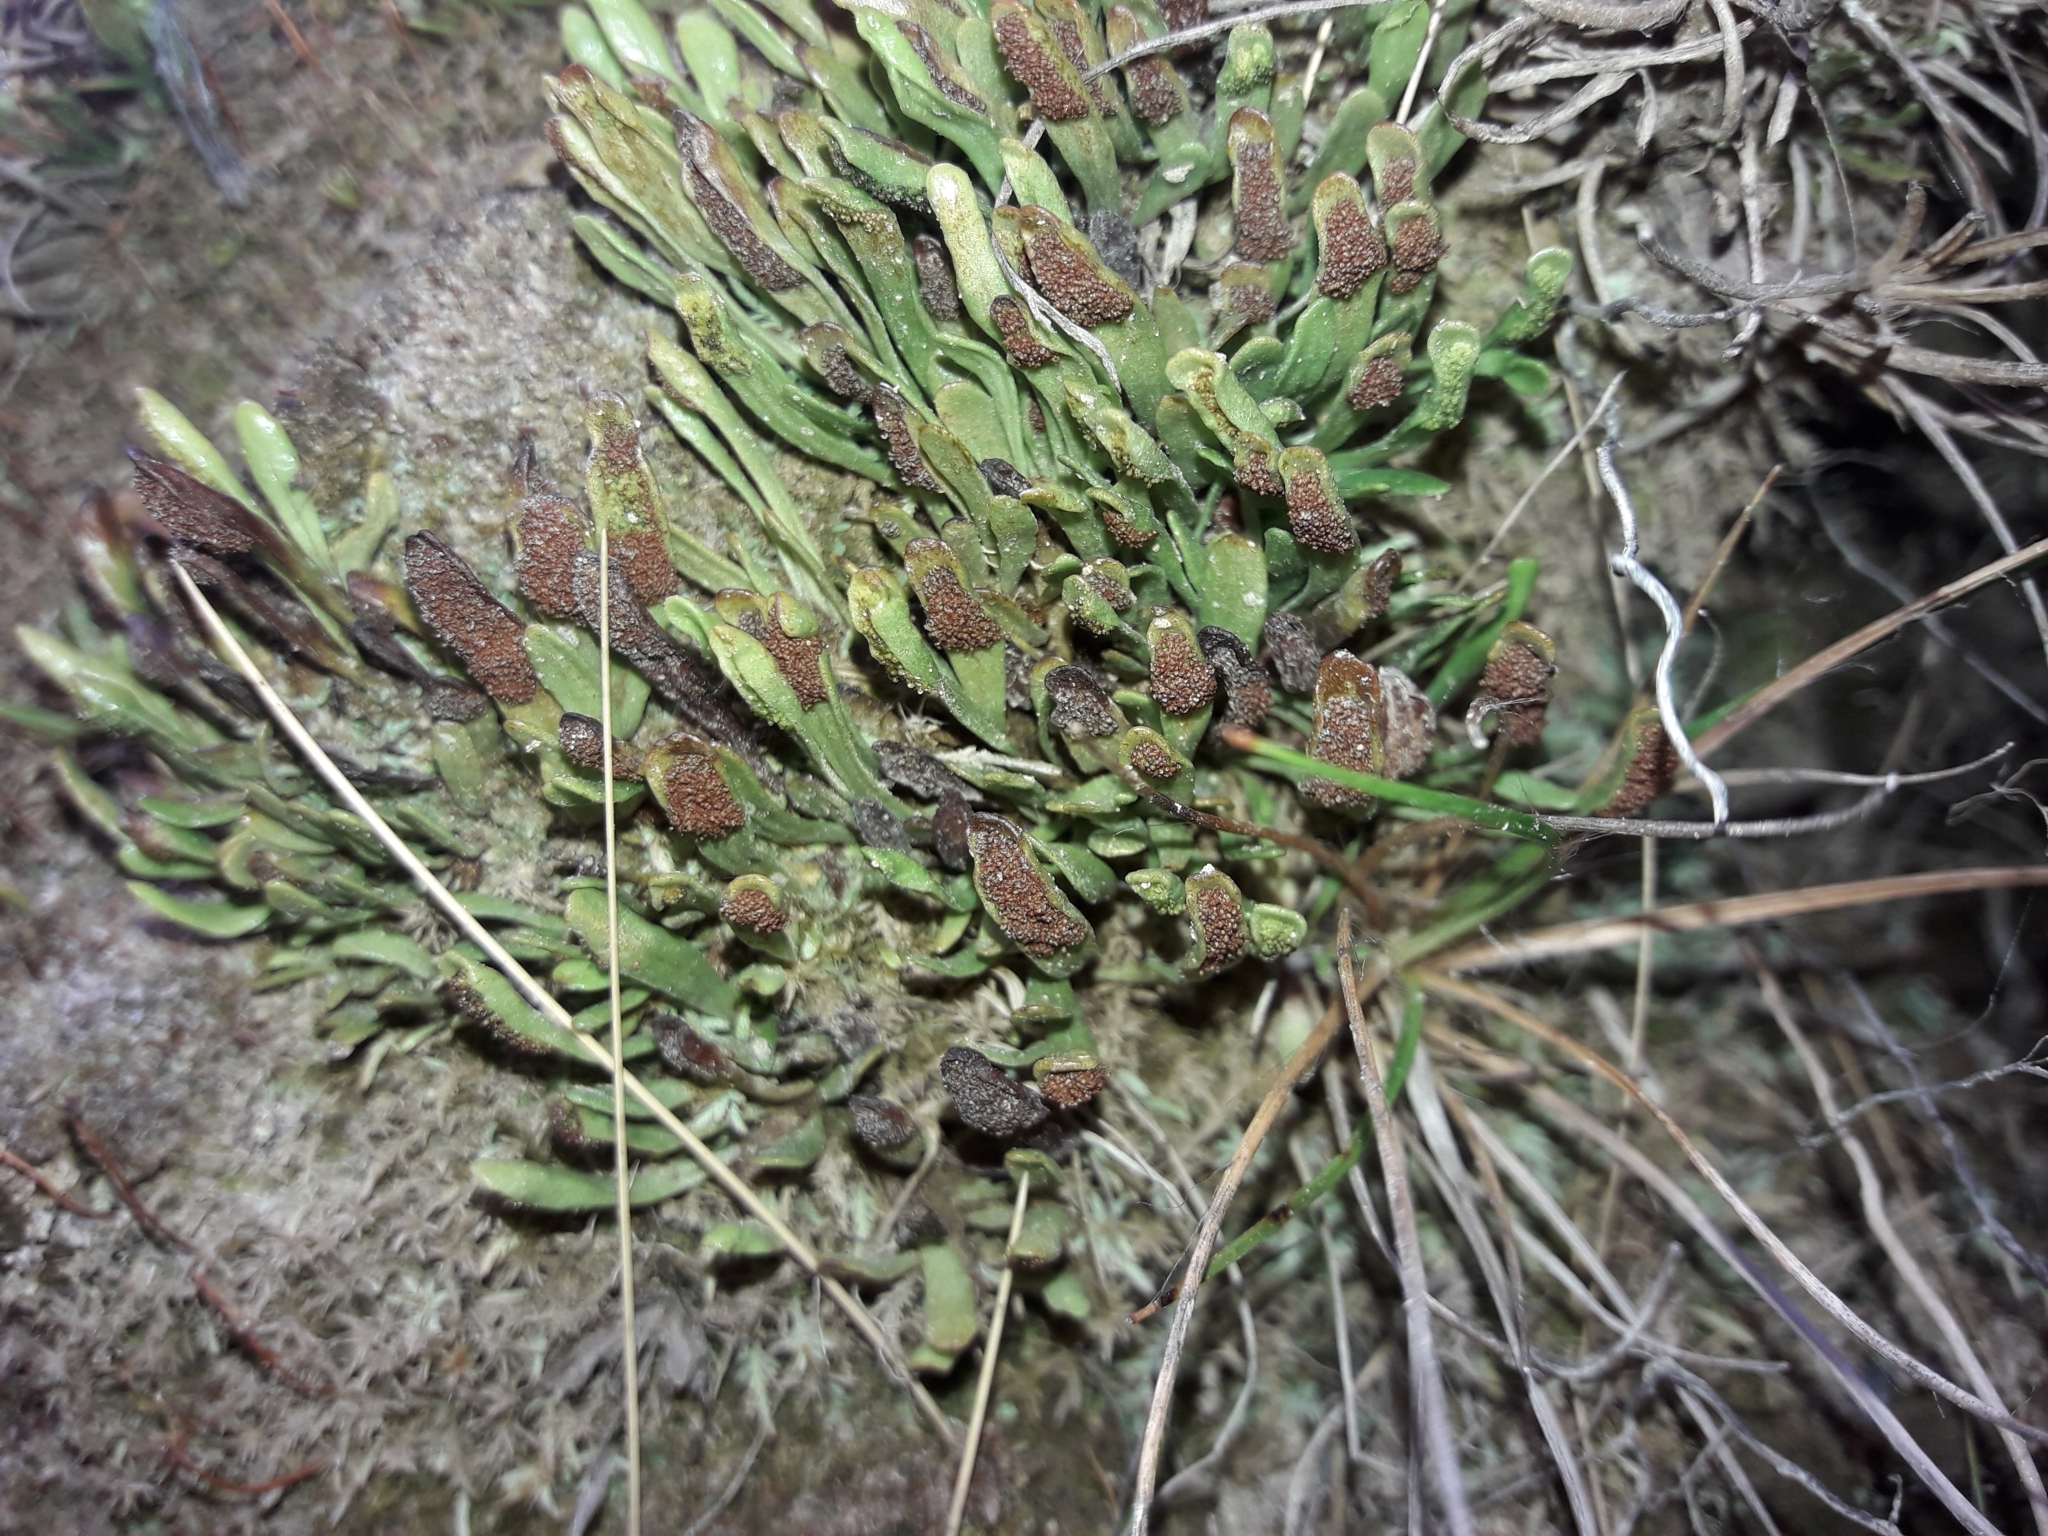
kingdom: Plantae
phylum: Tracheophyta
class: Polypodiopsida
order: Polypodiales
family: Polypodiaceae
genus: Notogrammitis
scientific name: Notogrammitis crassior
